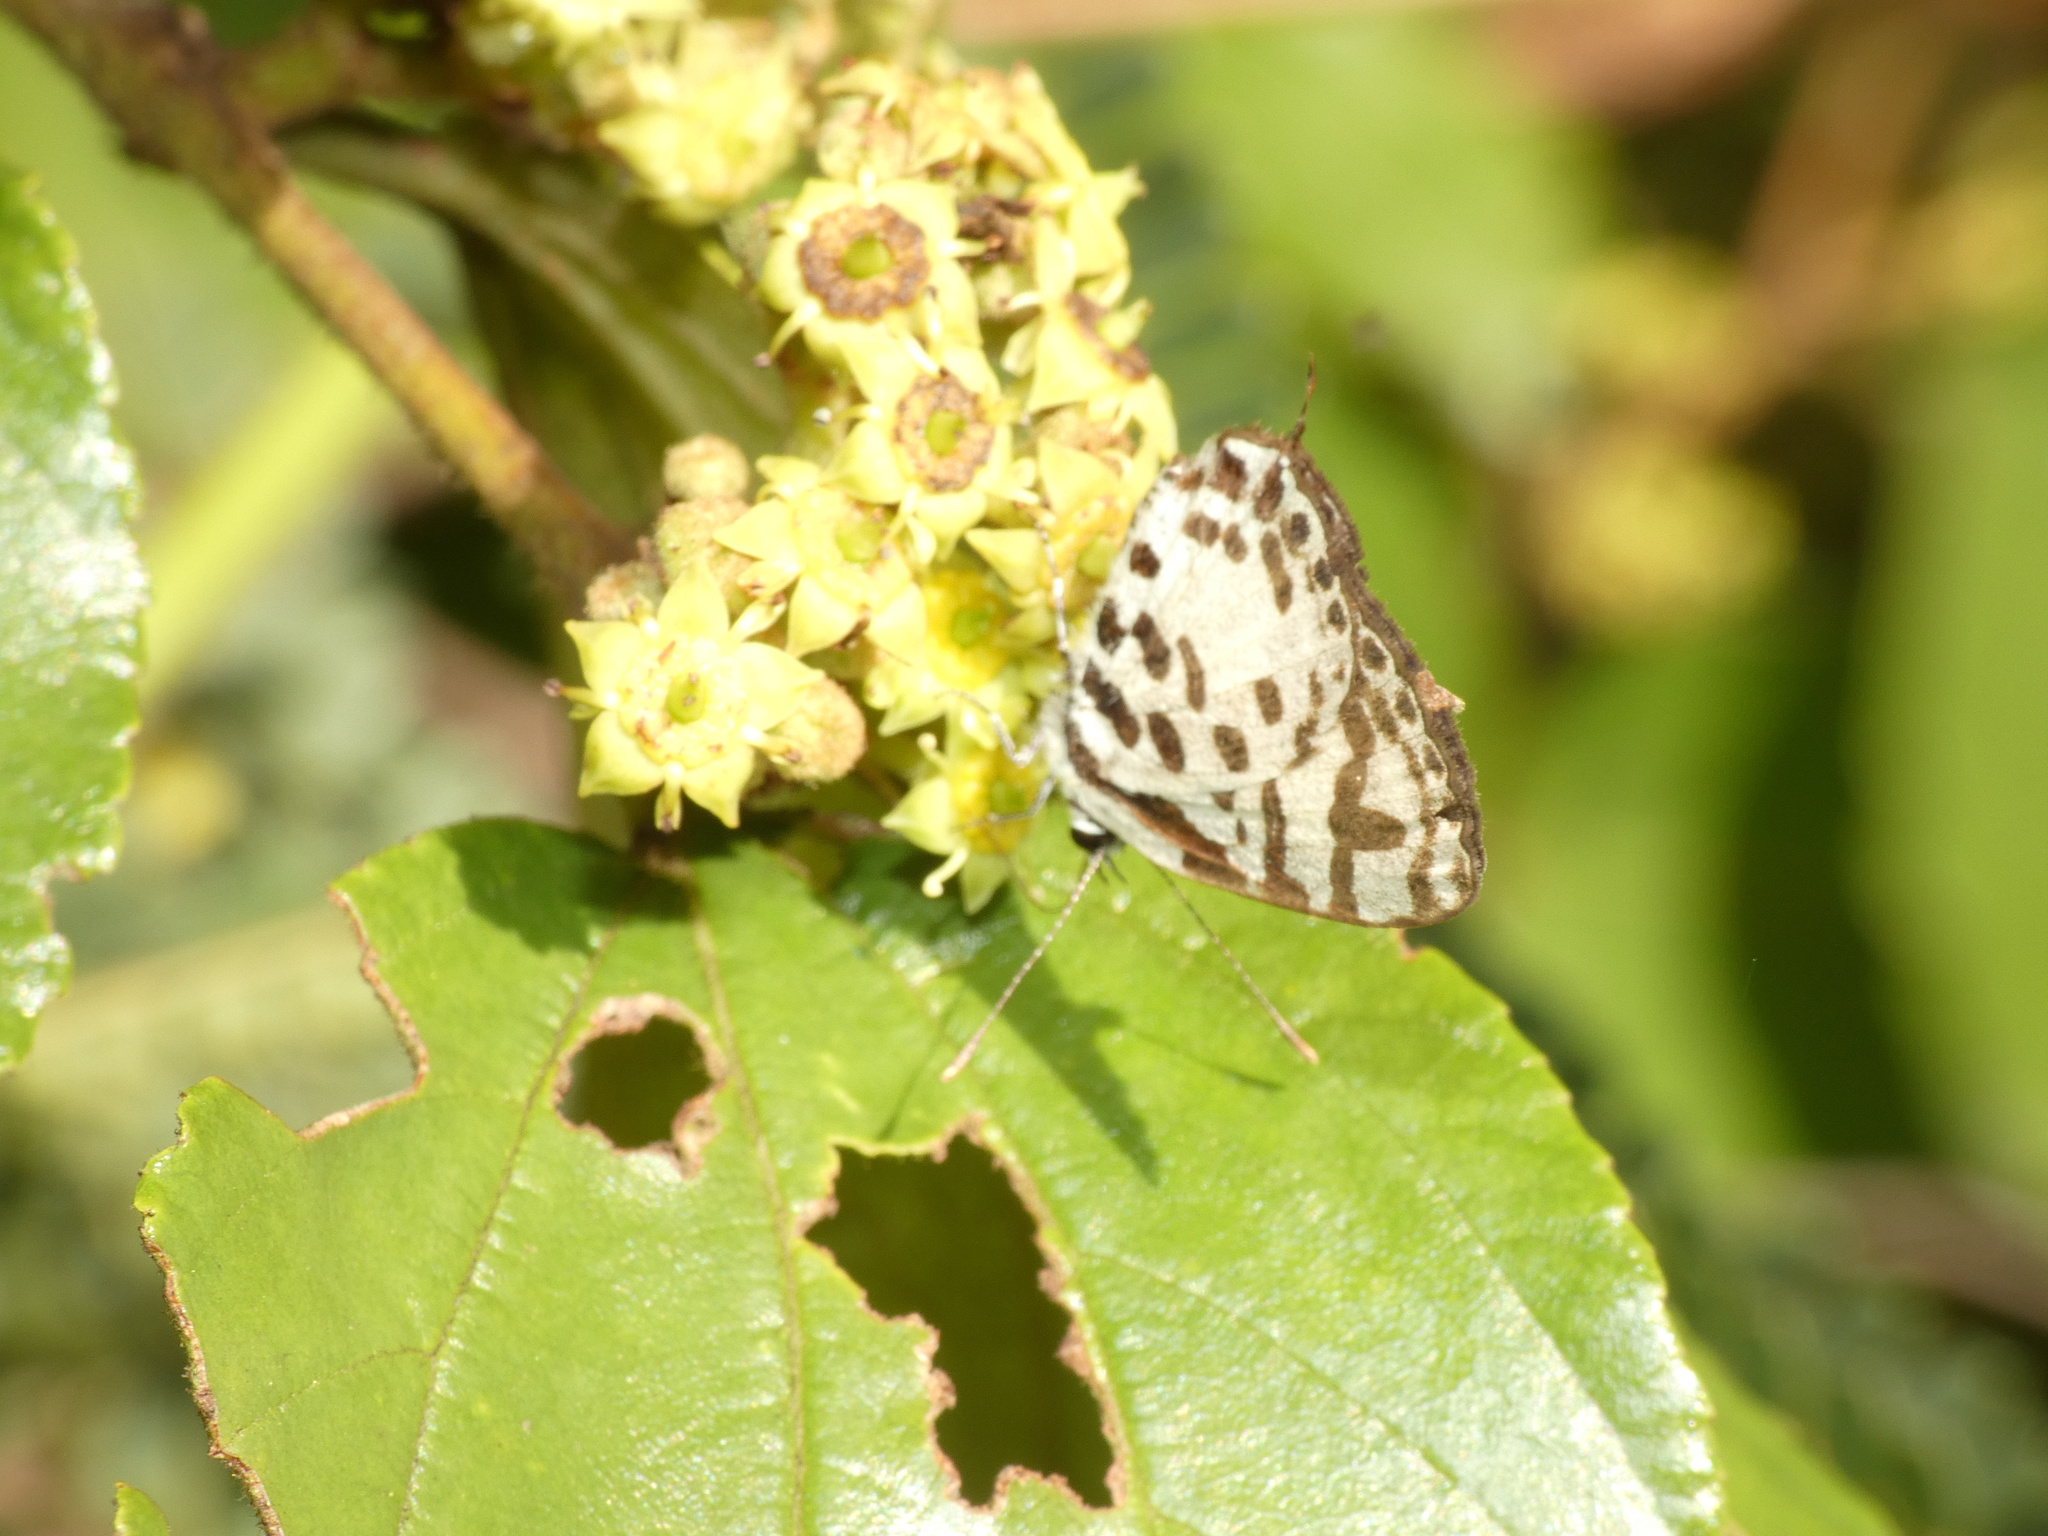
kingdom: Animalia
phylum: Arthropoda
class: Insecta
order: Lepidoptera
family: Lycaenidae
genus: Castalius
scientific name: Castalius calice
